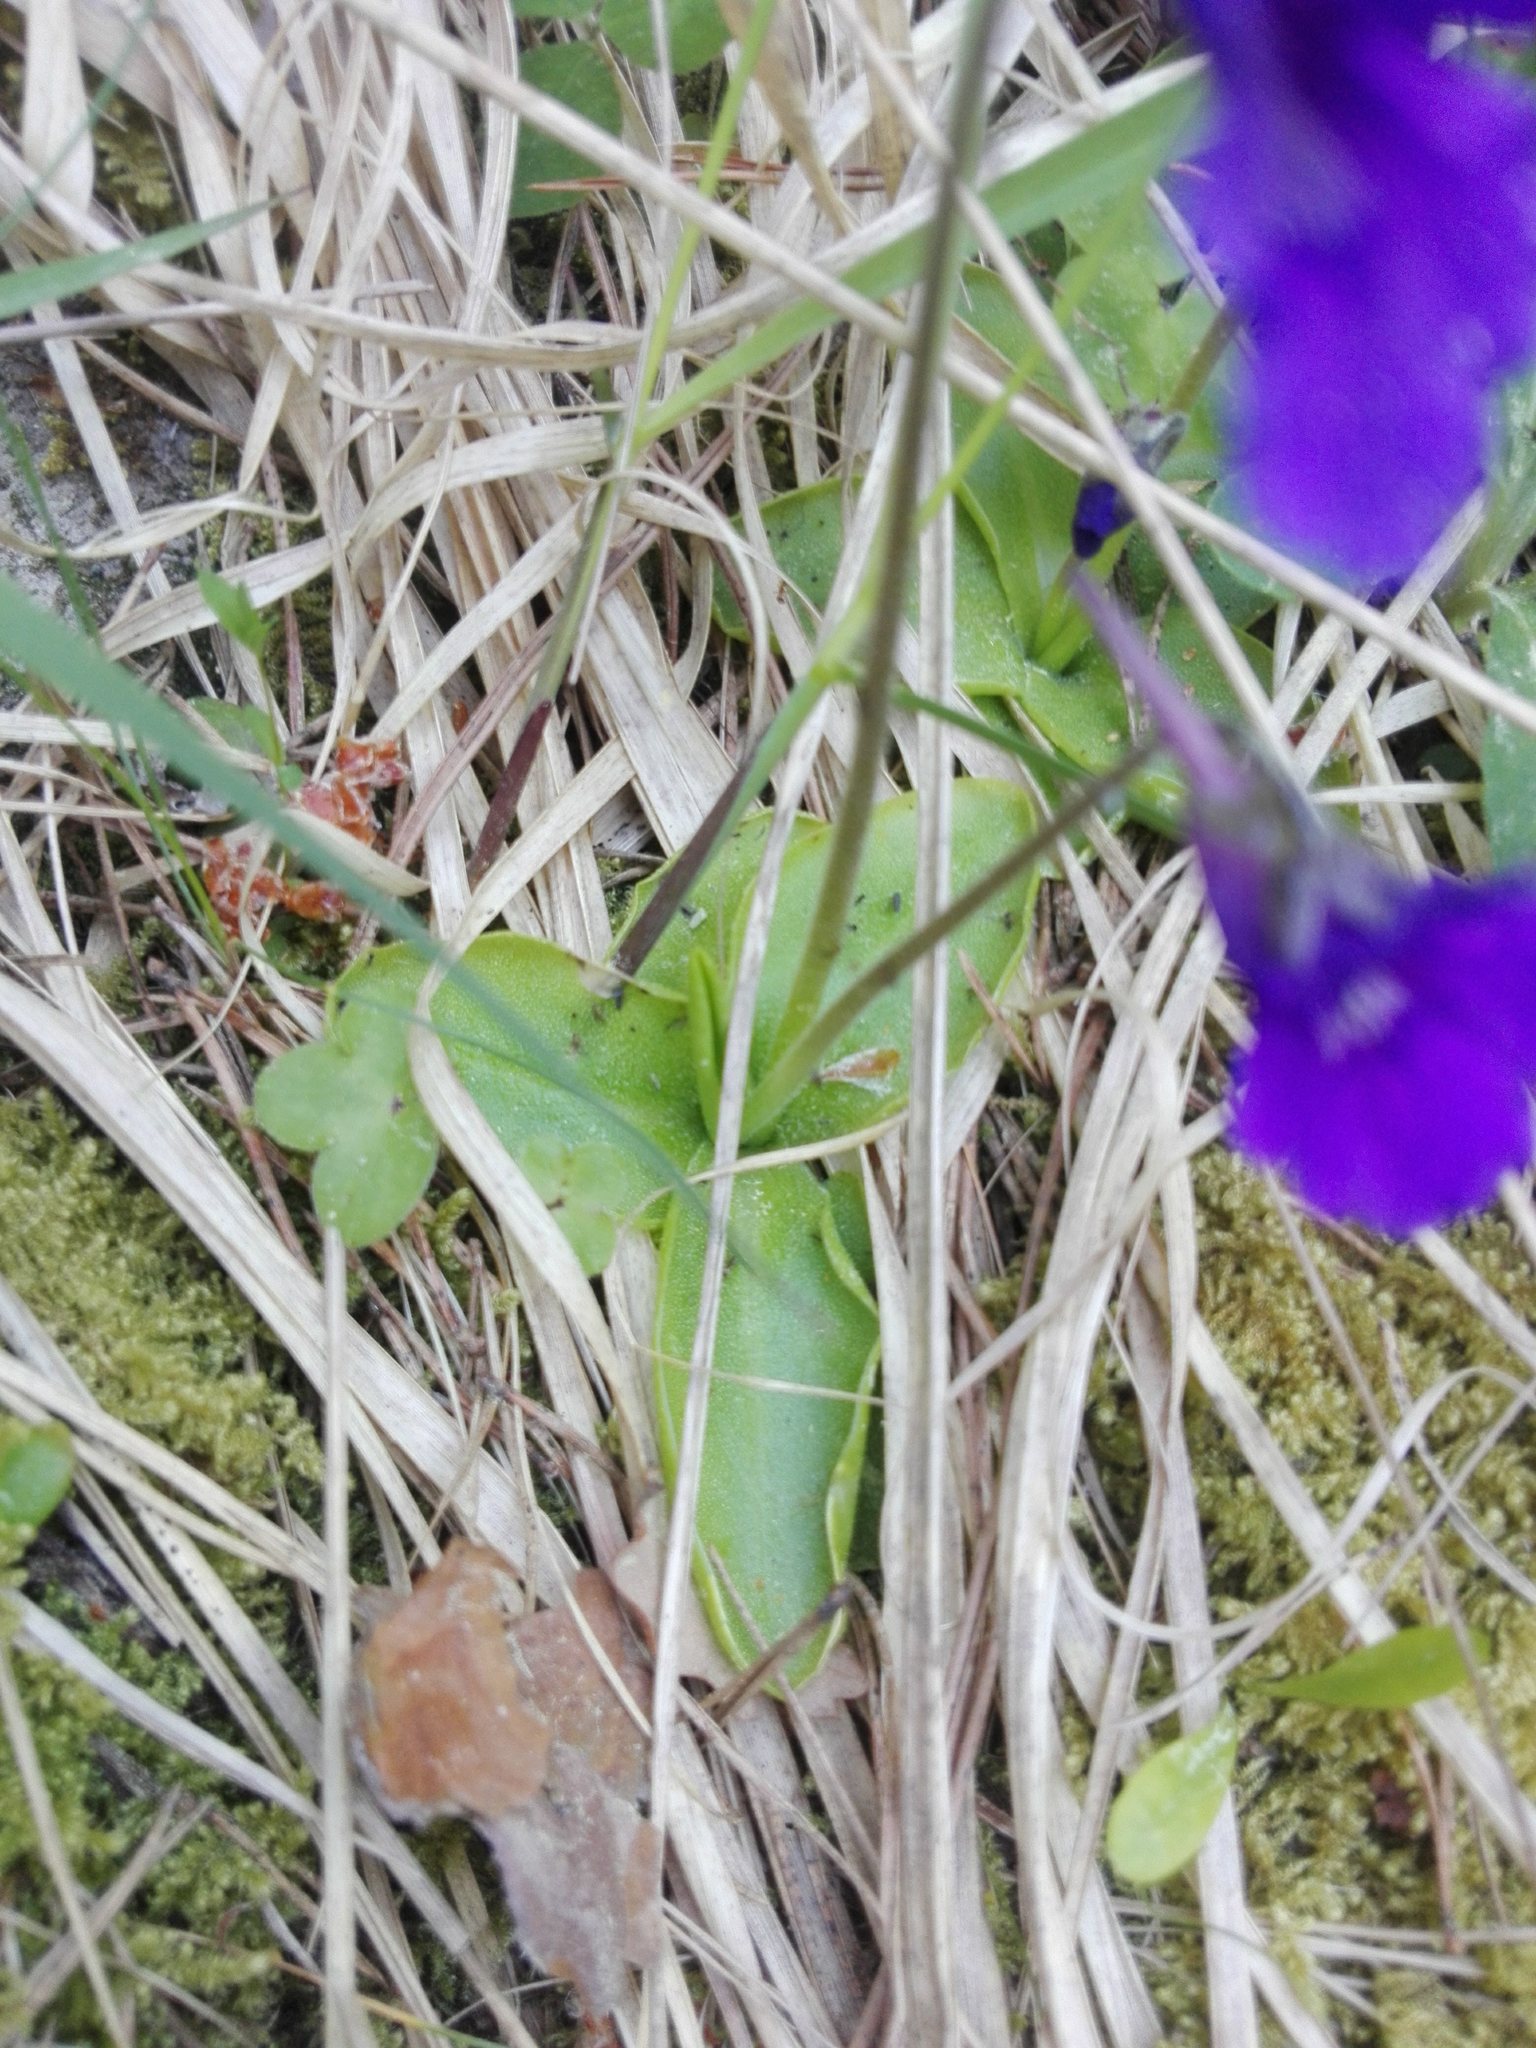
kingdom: Plantae
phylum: Tracheophyta
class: Magnoliopsida
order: Lamiales
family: Lentibulariaceae
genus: Pinguicula
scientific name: Pinguicula grandiflora
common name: Large-flowered butterwort
